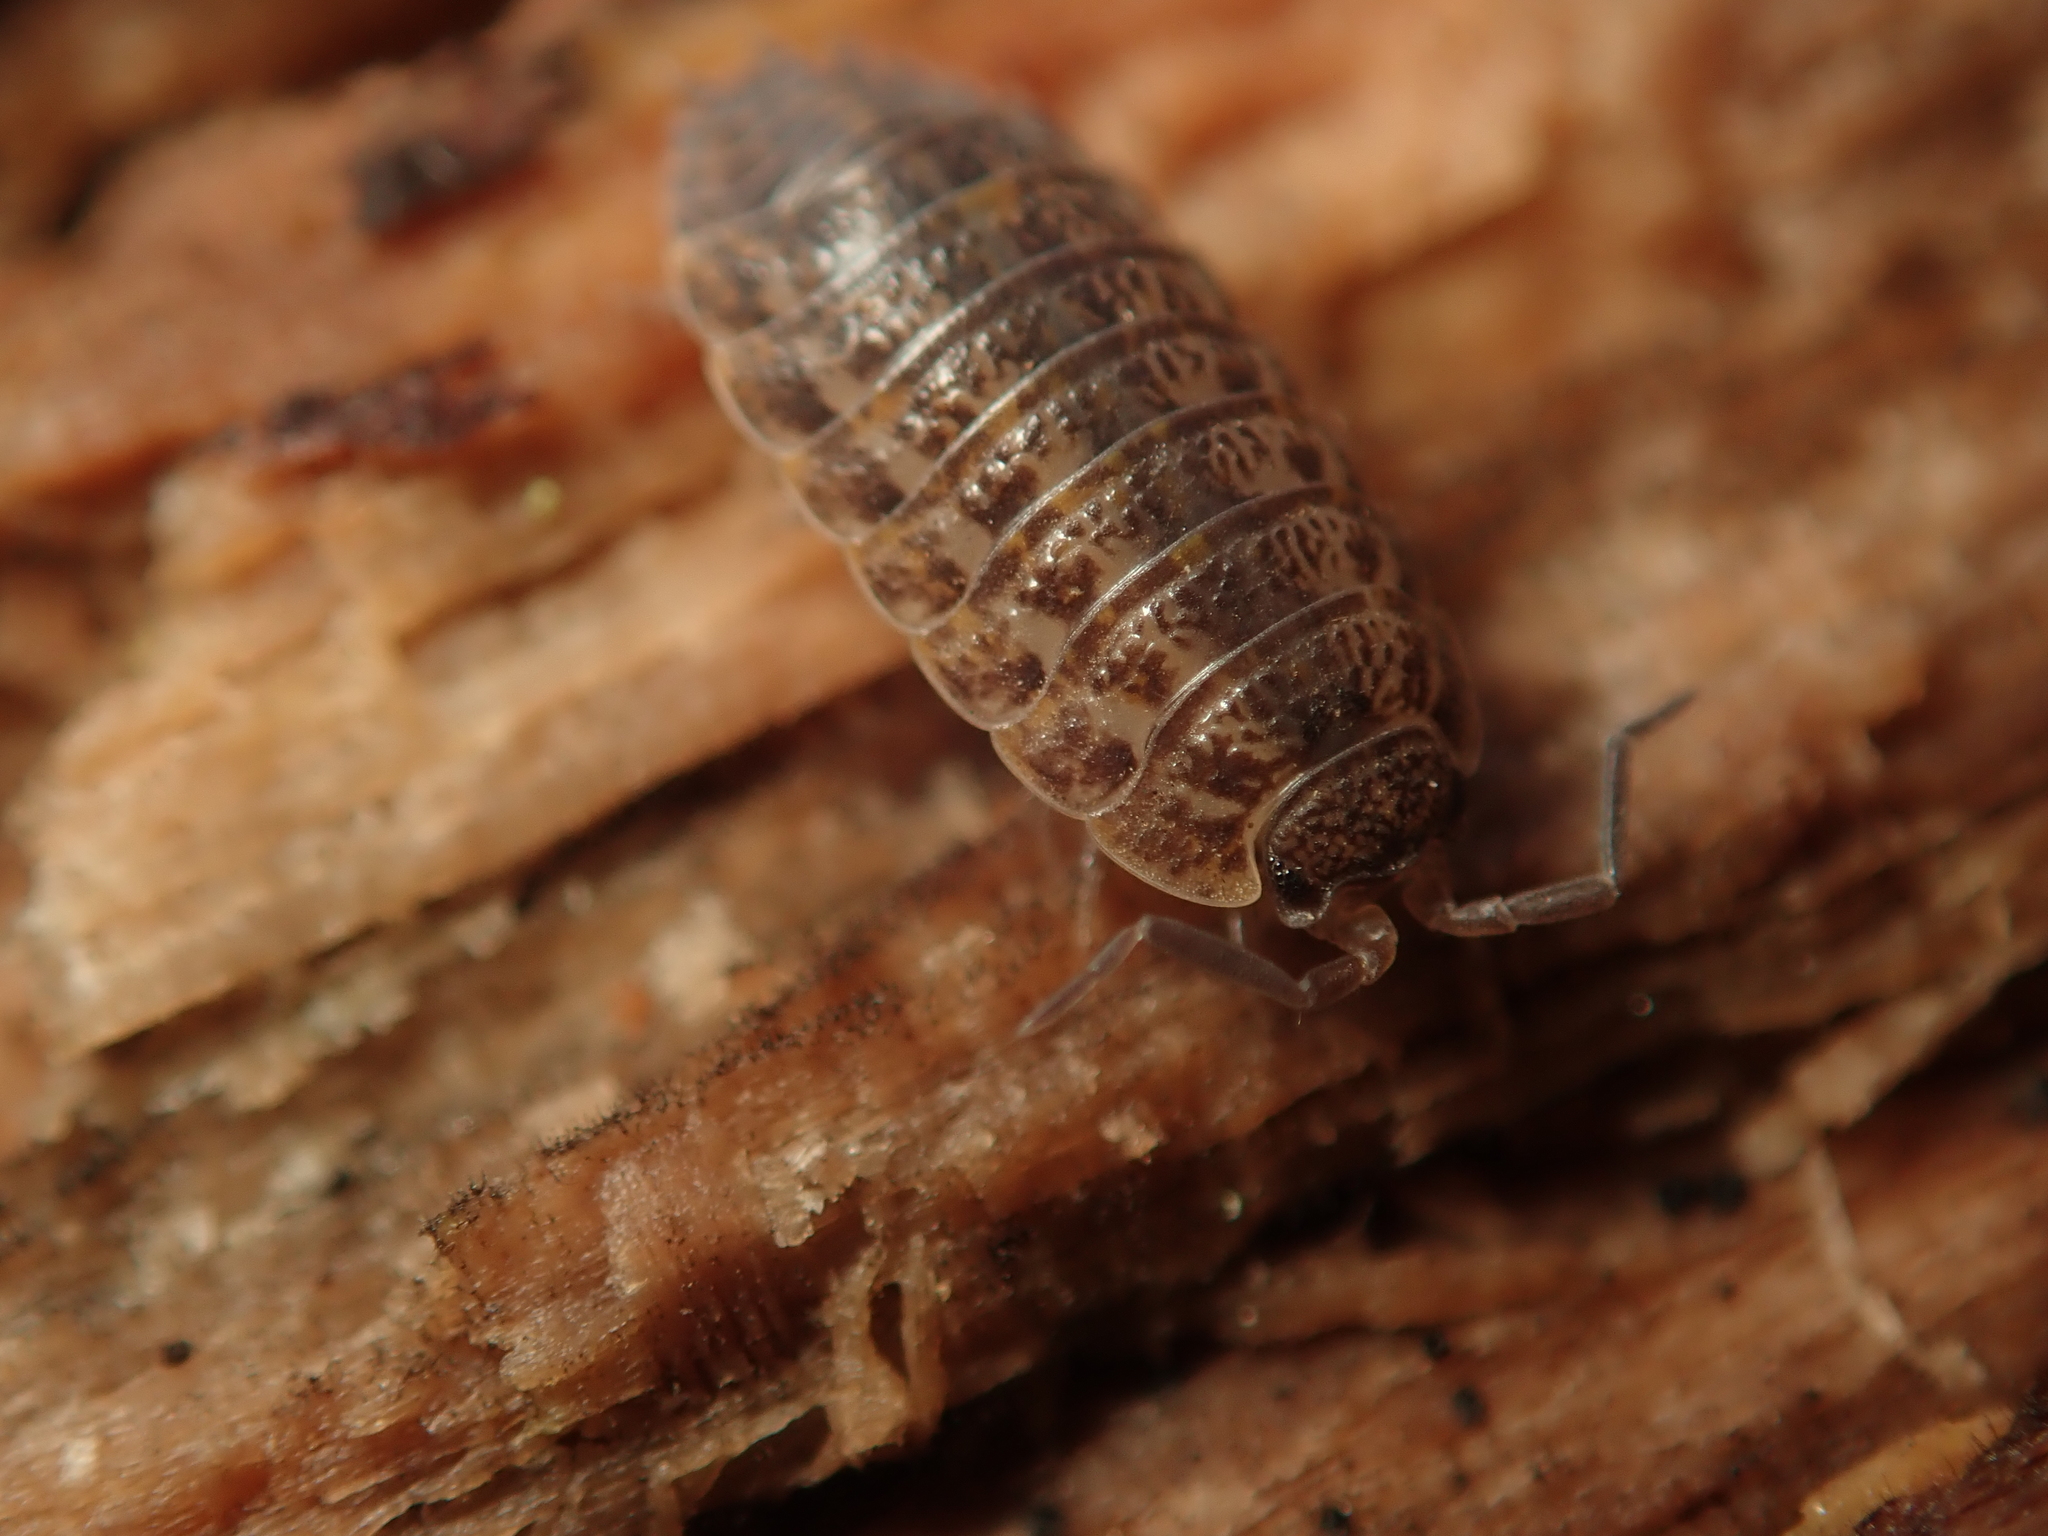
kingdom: Animalia
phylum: Arthropoda
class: Malacostraca
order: Isopoda
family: Trachelipodidae
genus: Trachelipus
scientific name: Trachelipus rathkii
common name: Isopod
